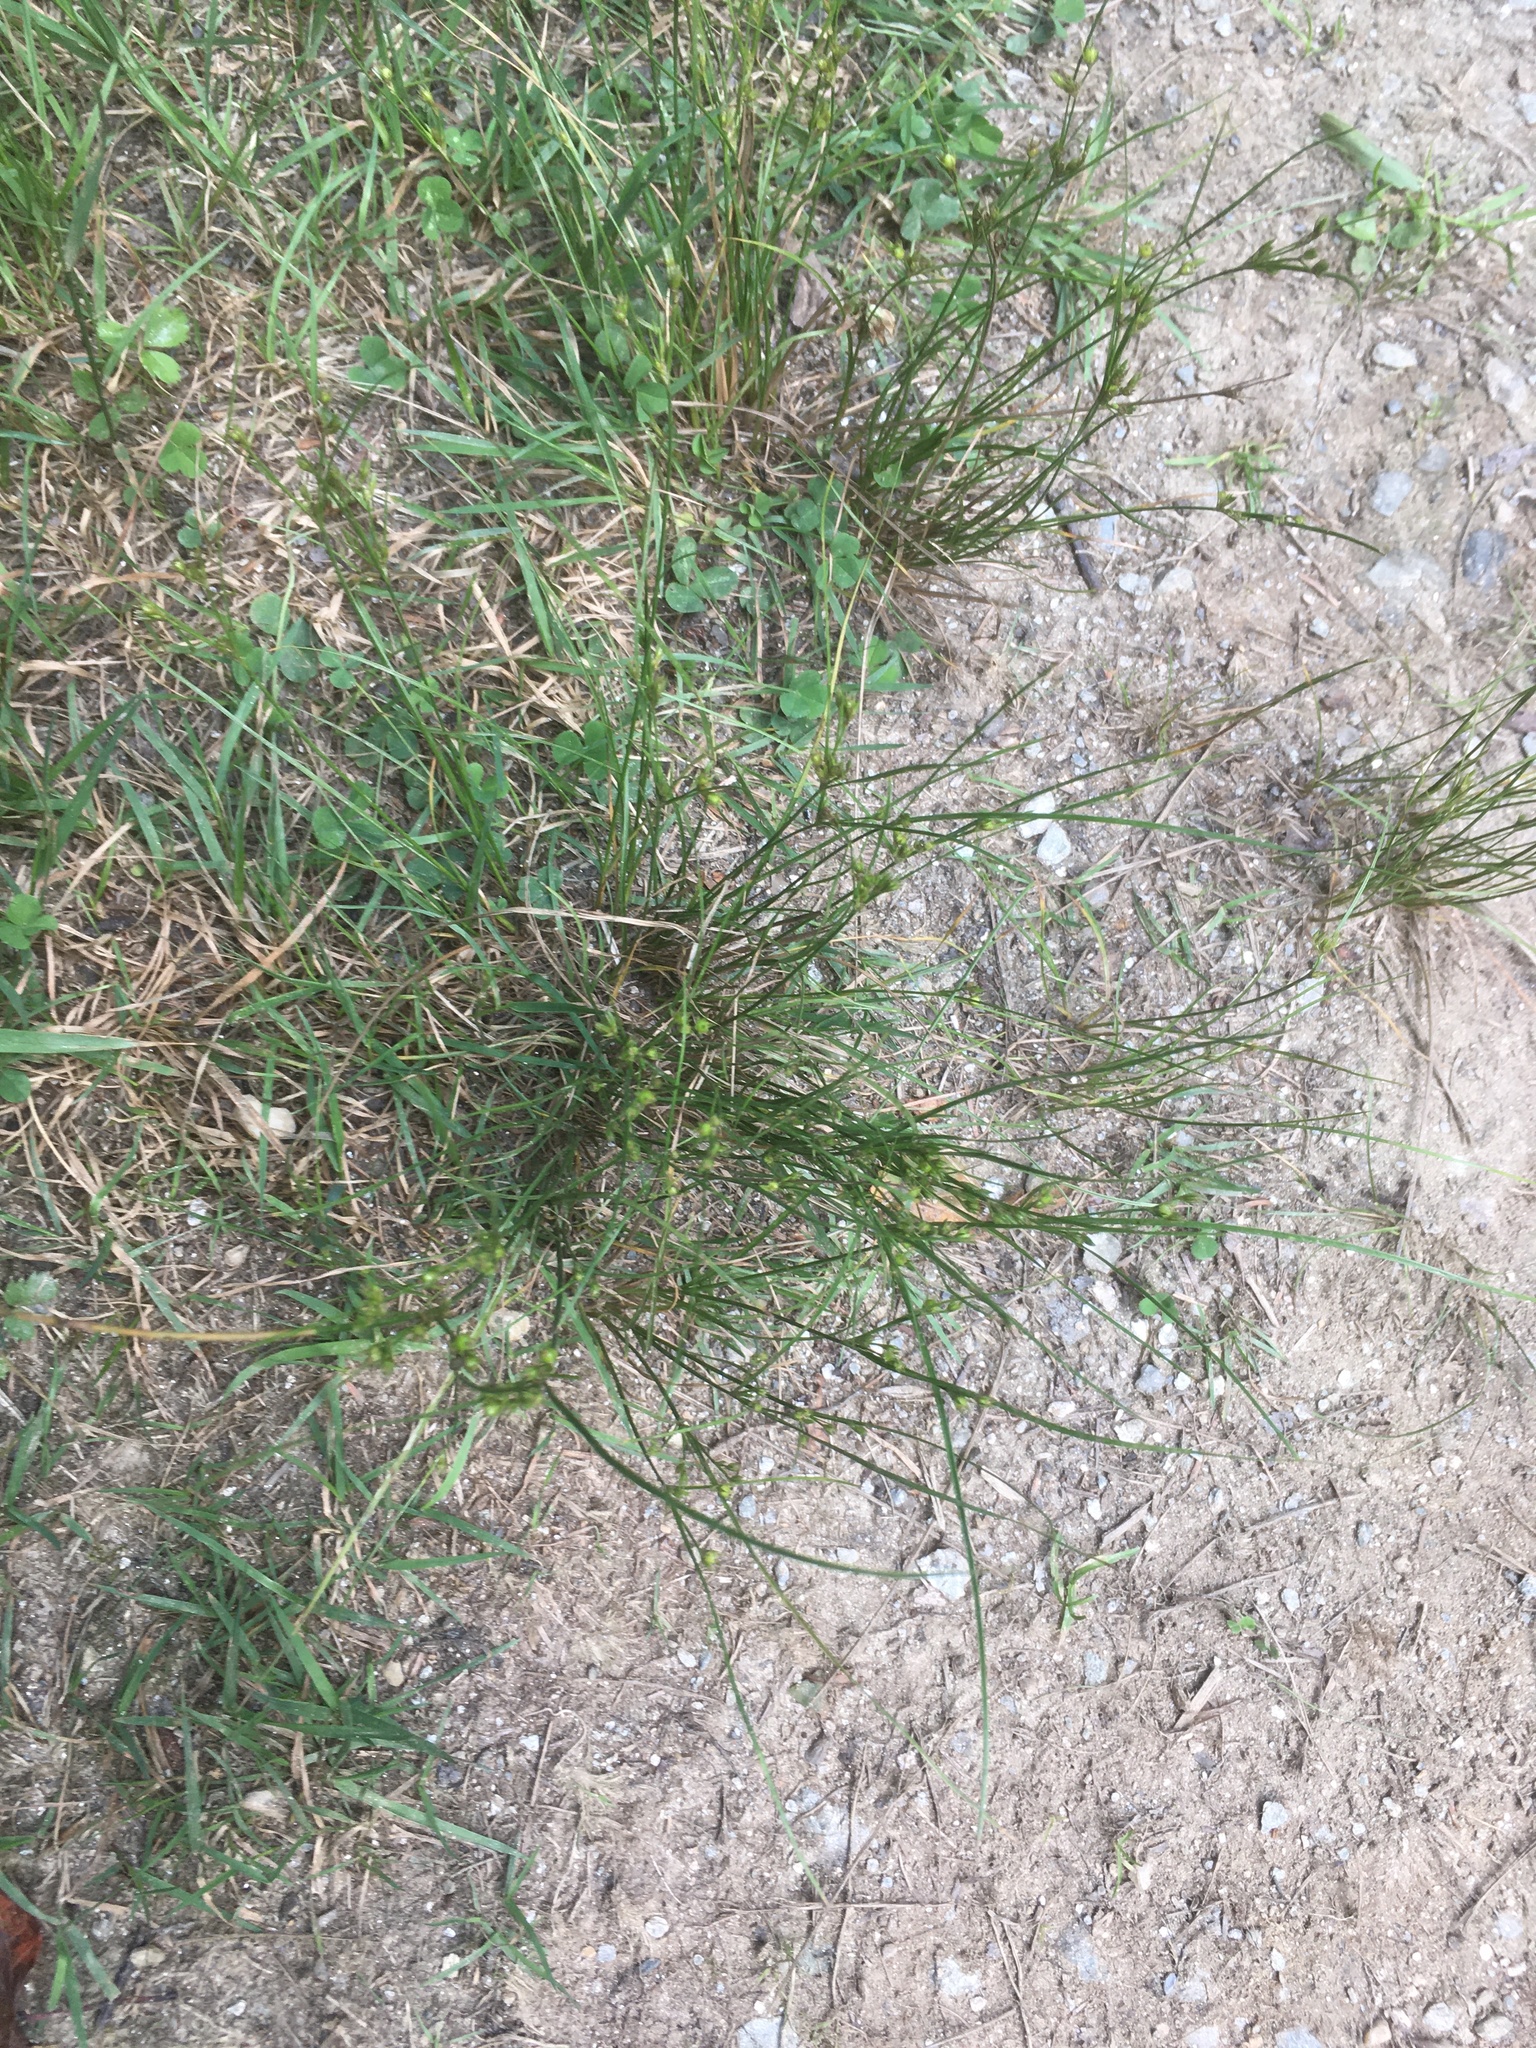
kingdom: Plantae
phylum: Tracheophyta
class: Liliopsida
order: Poales
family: Juncaceae
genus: Juncus
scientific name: Juncus tenuis
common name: Slender rush
